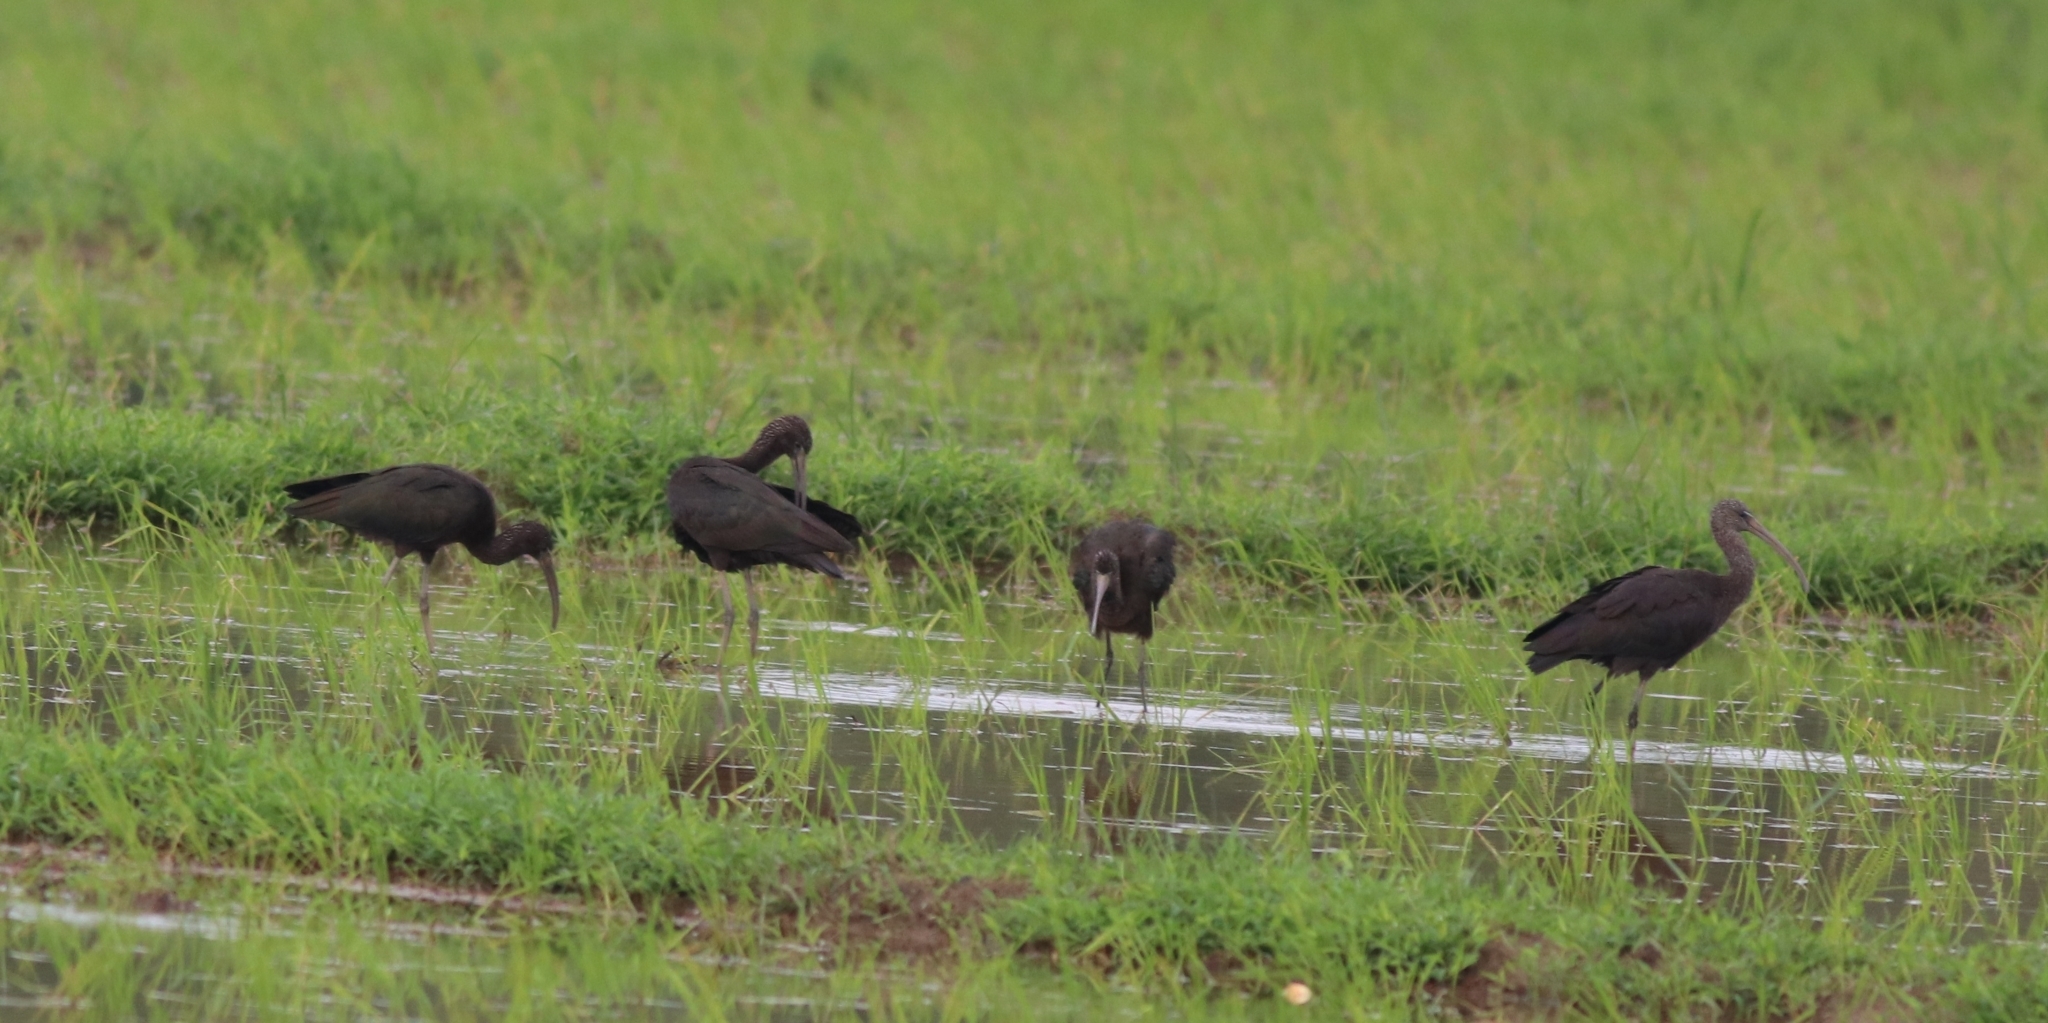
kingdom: Animalia
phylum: Chordata
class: Aves
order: Pelecaniformes
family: Threskiornithidae
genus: Plegadis
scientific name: Plegadis falcinellus
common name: Glossy ibis
